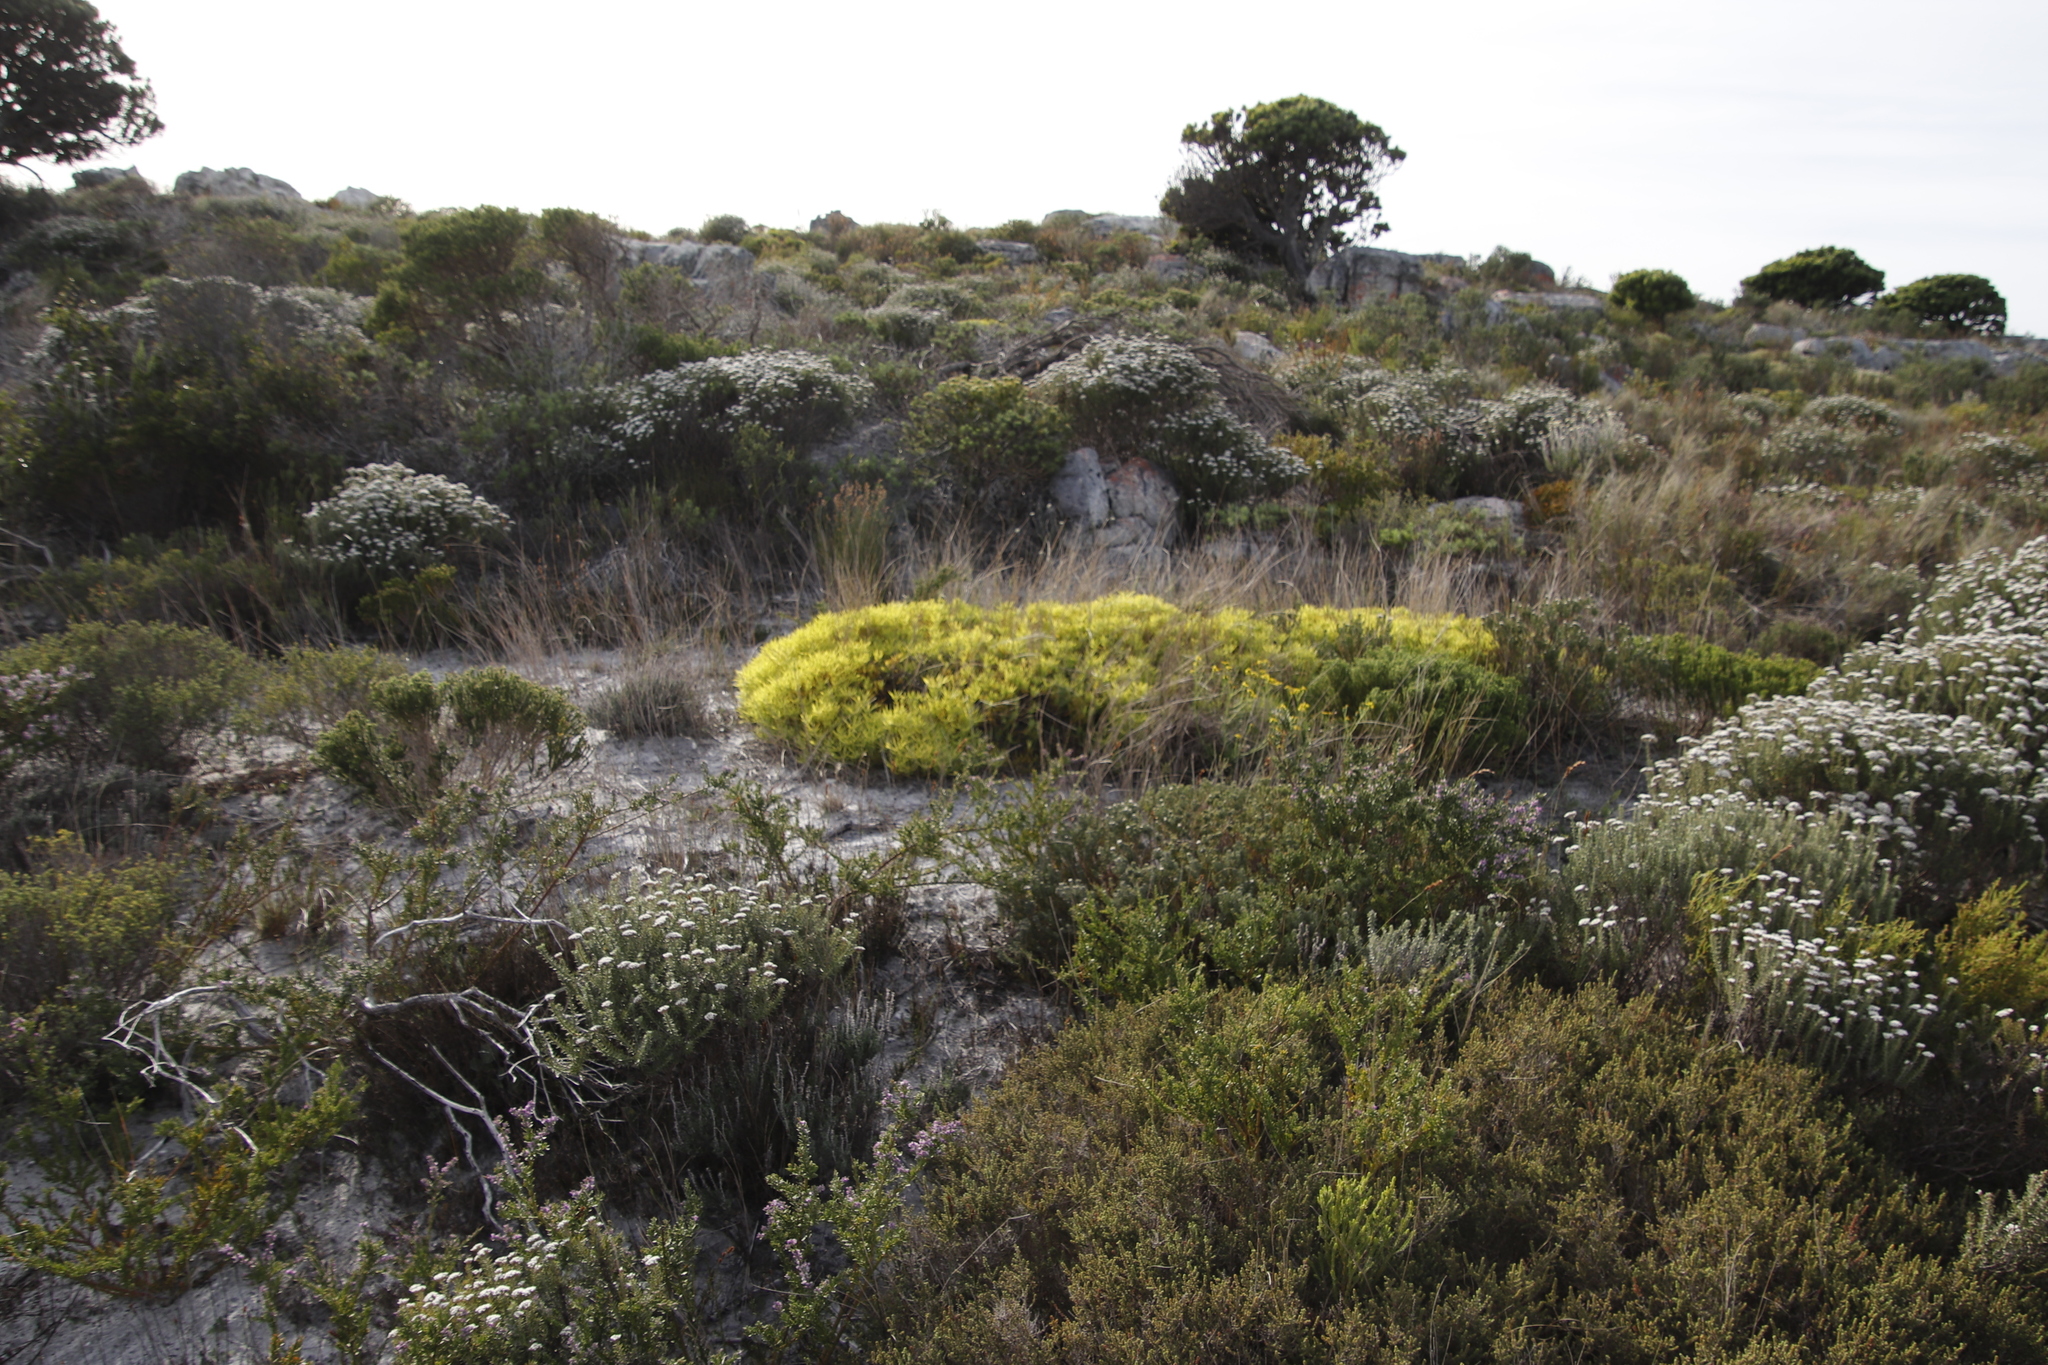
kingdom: Plantae
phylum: Tracheophyta
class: Magnoliopsida
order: Proteales
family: Proteaceae
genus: Leucadendron
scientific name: Leucadendron salignum
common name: Common sunshine conebush
